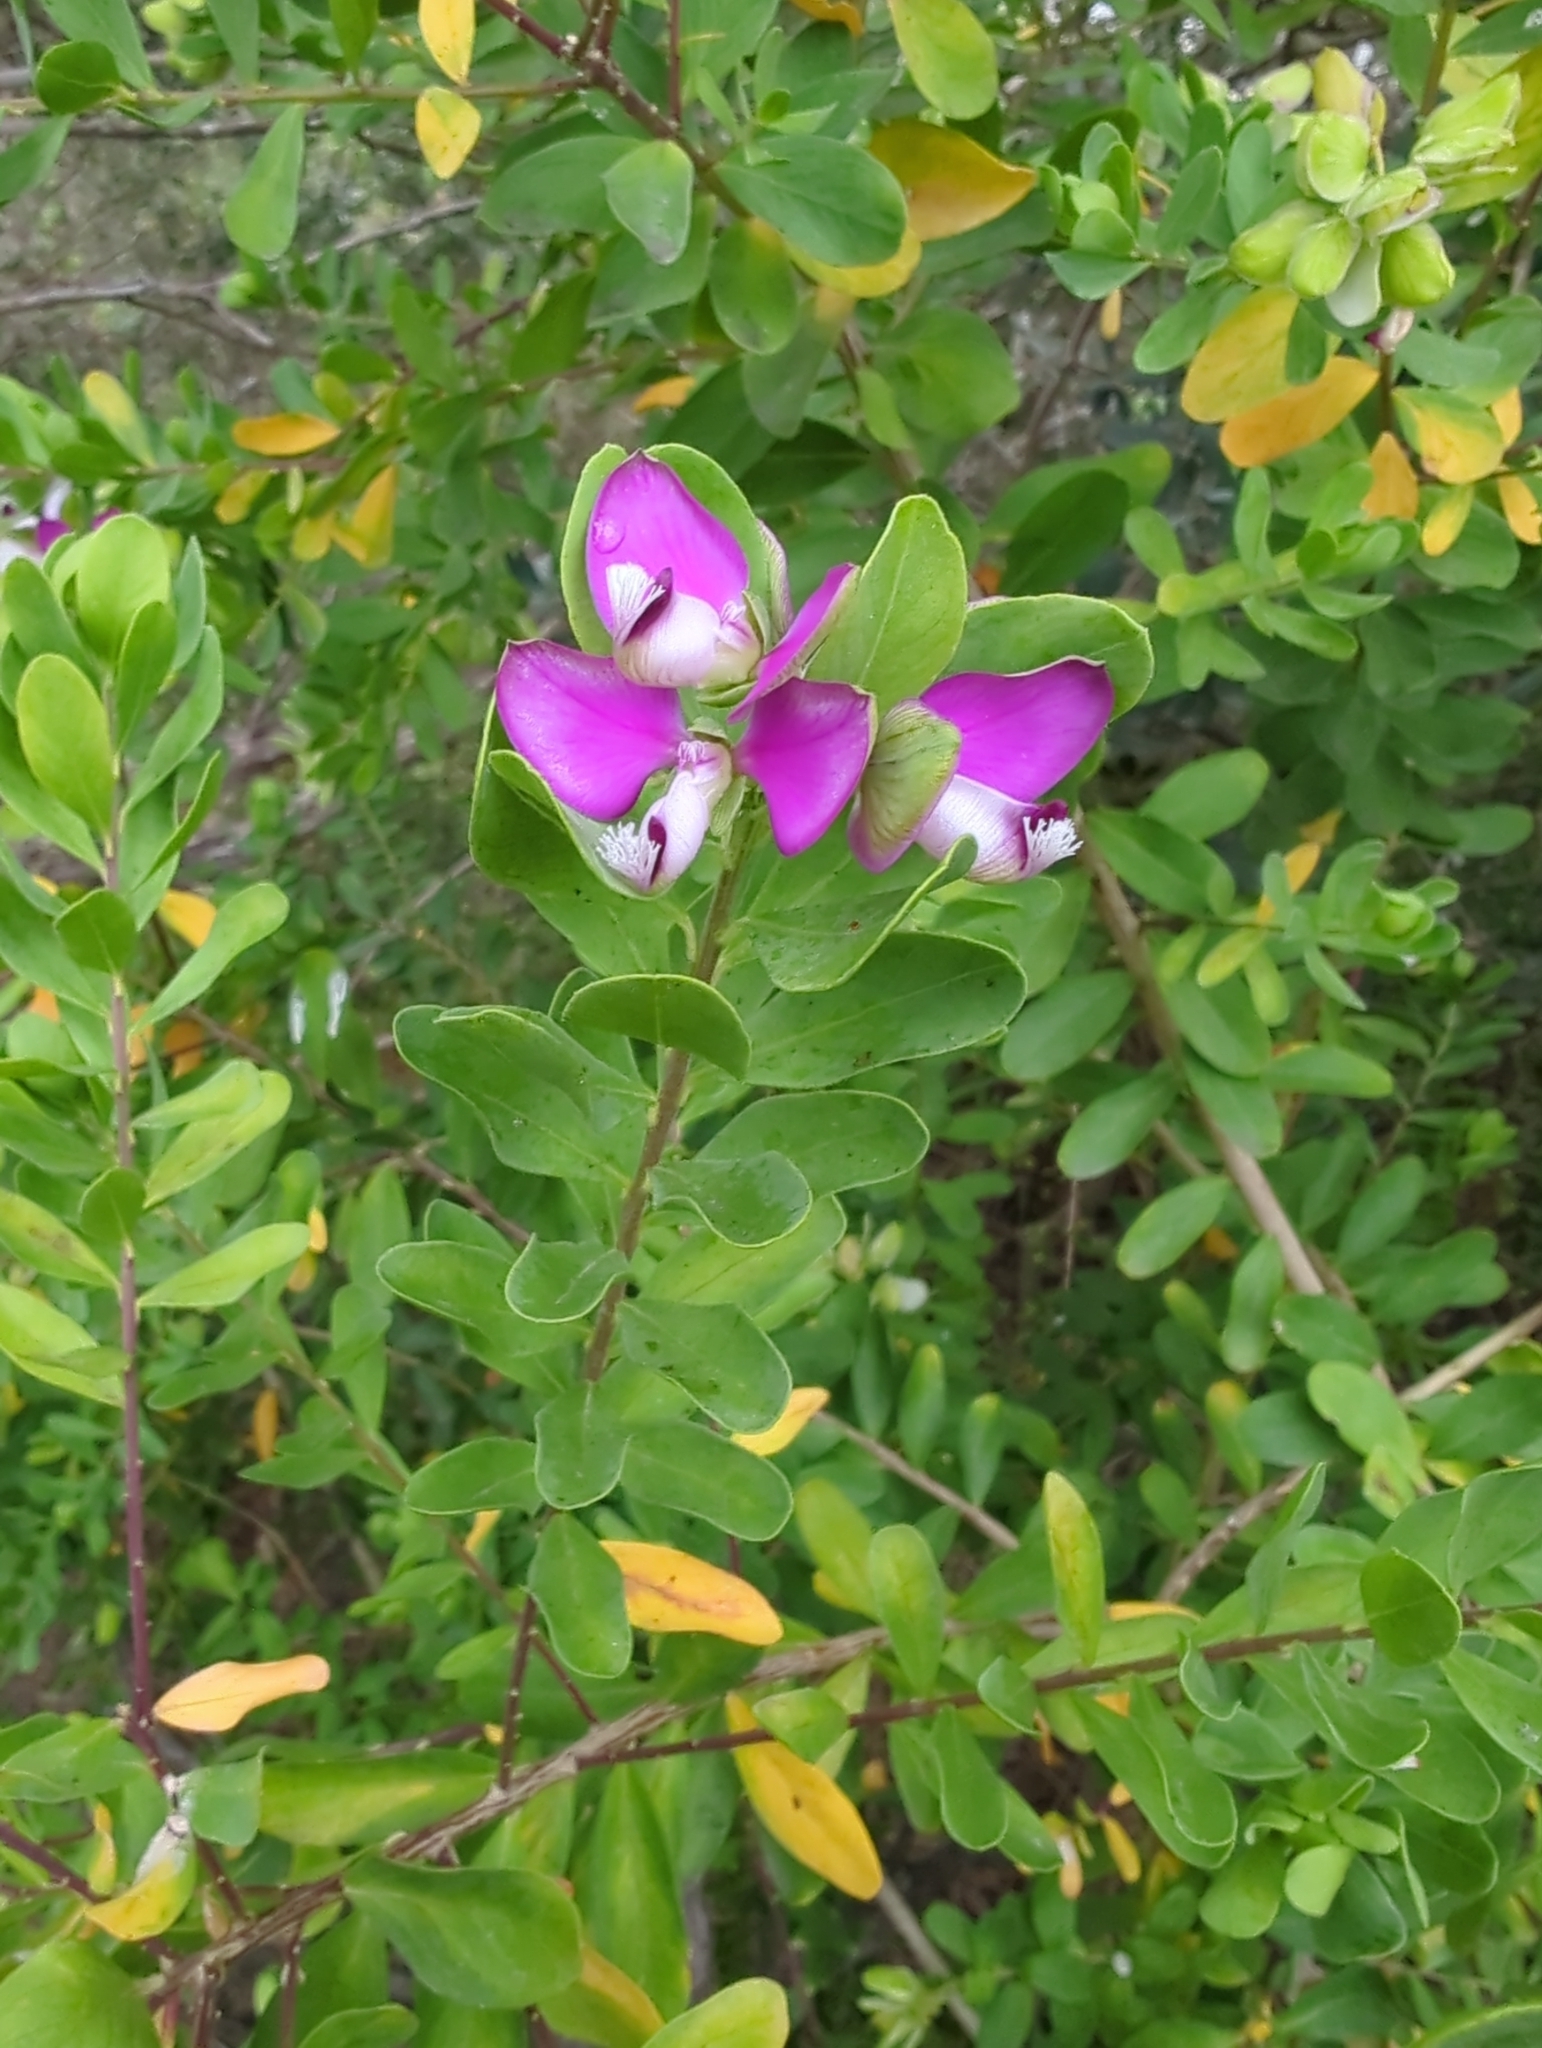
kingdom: Plantae
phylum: Tracheophyta
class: Magnoliopsida
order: Fabales
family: Polygalaceae
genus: Polygala
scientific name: Polygala myrtifolia
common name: Myrtle-leaf milkwort
